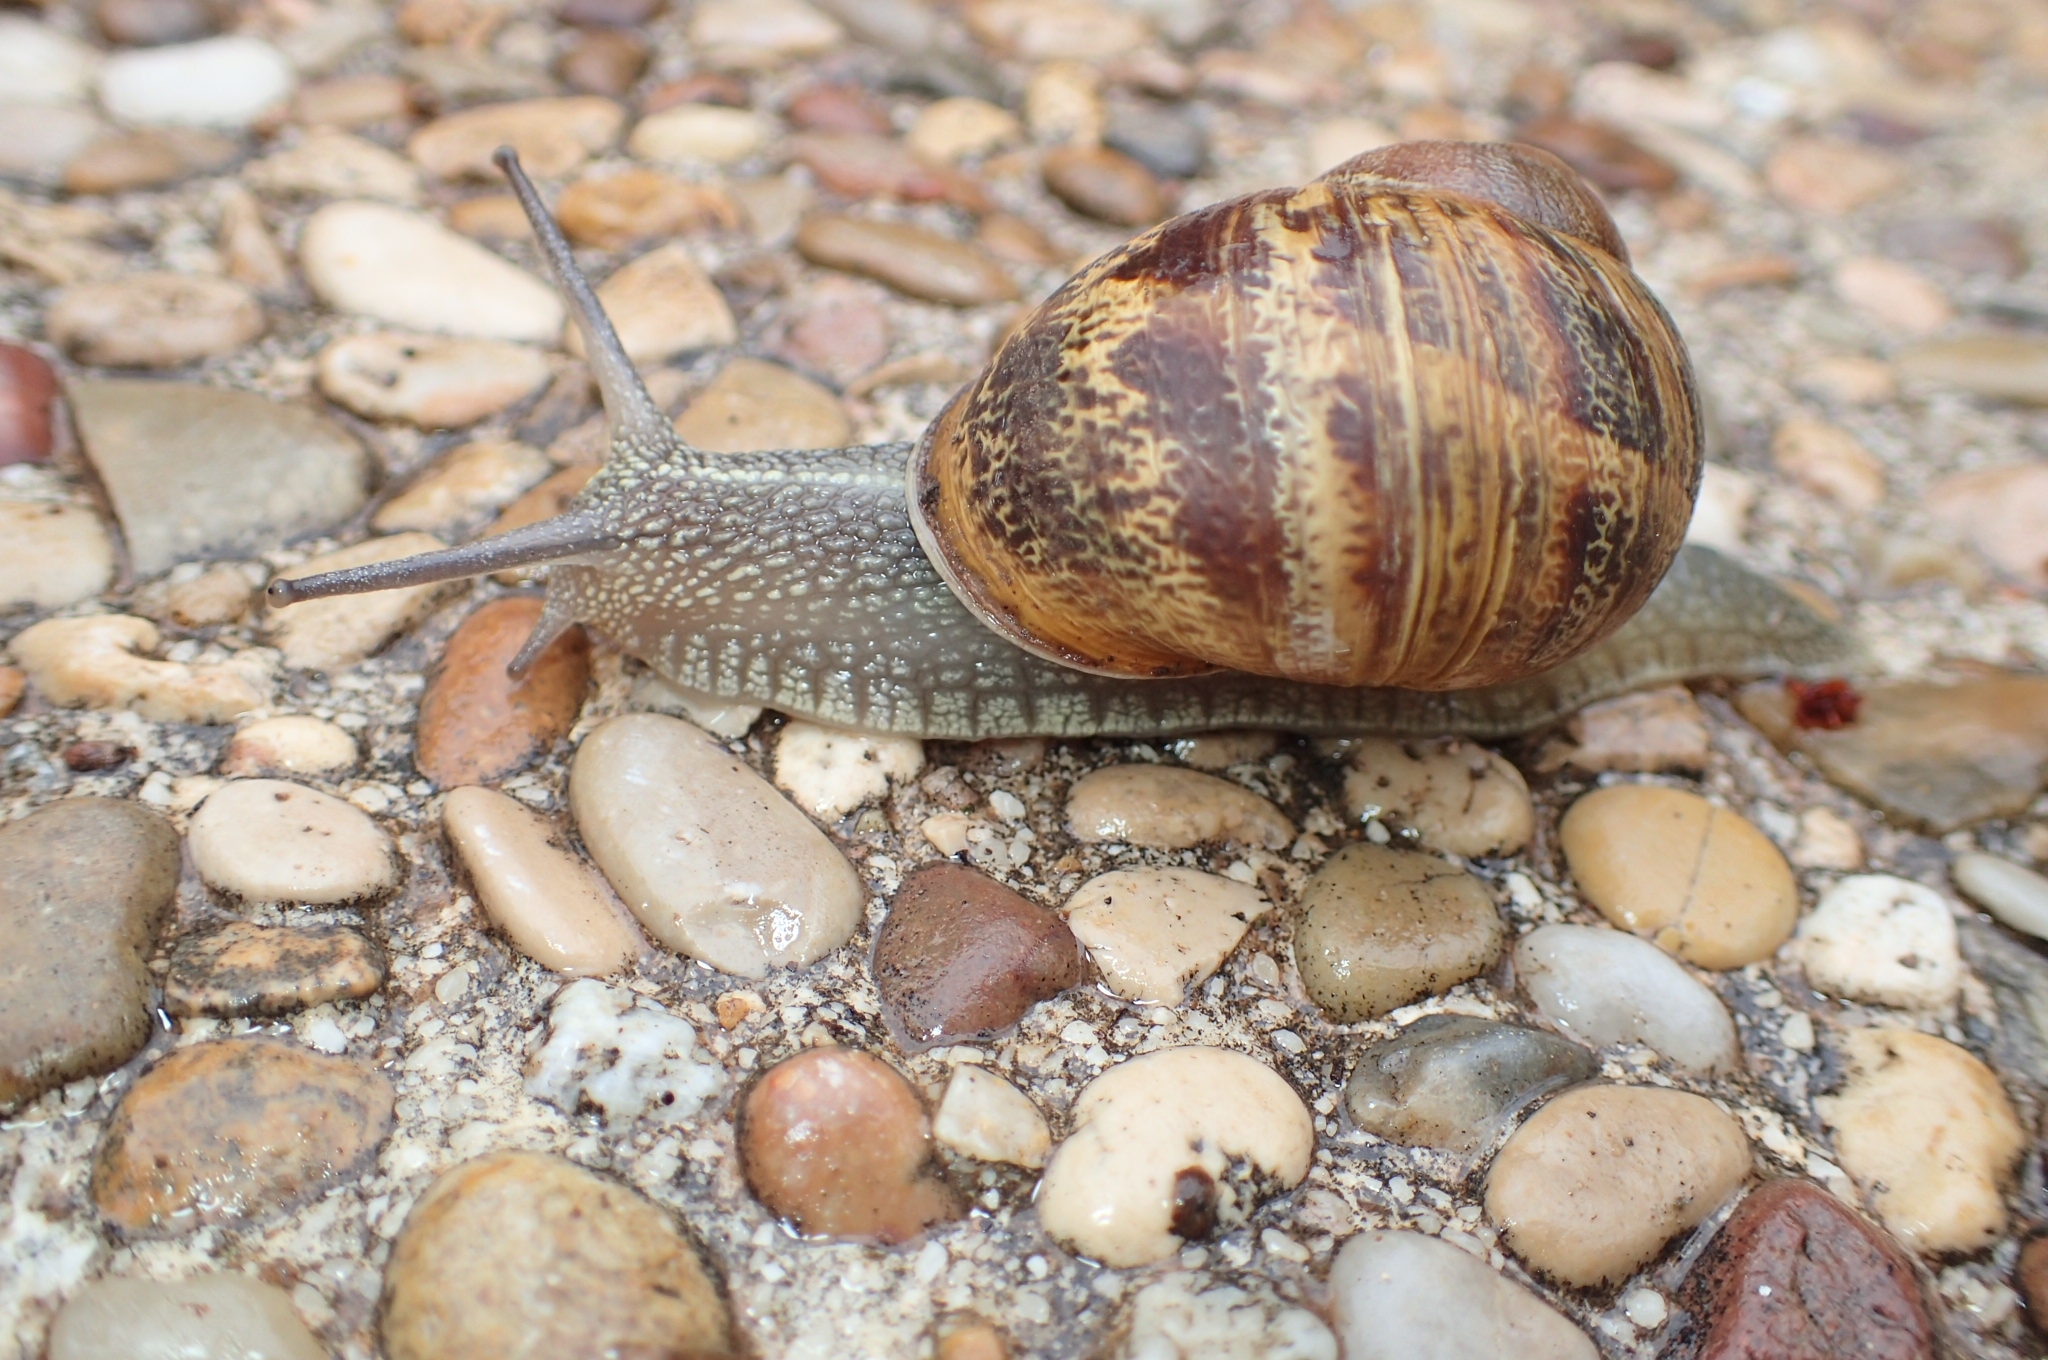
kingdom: Animalia
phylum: Mollusca
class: Gastropoda
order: Stylommatophora
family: Helicidae
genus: Cornu
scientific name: Cornu aspersum
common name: Brown garden snail
